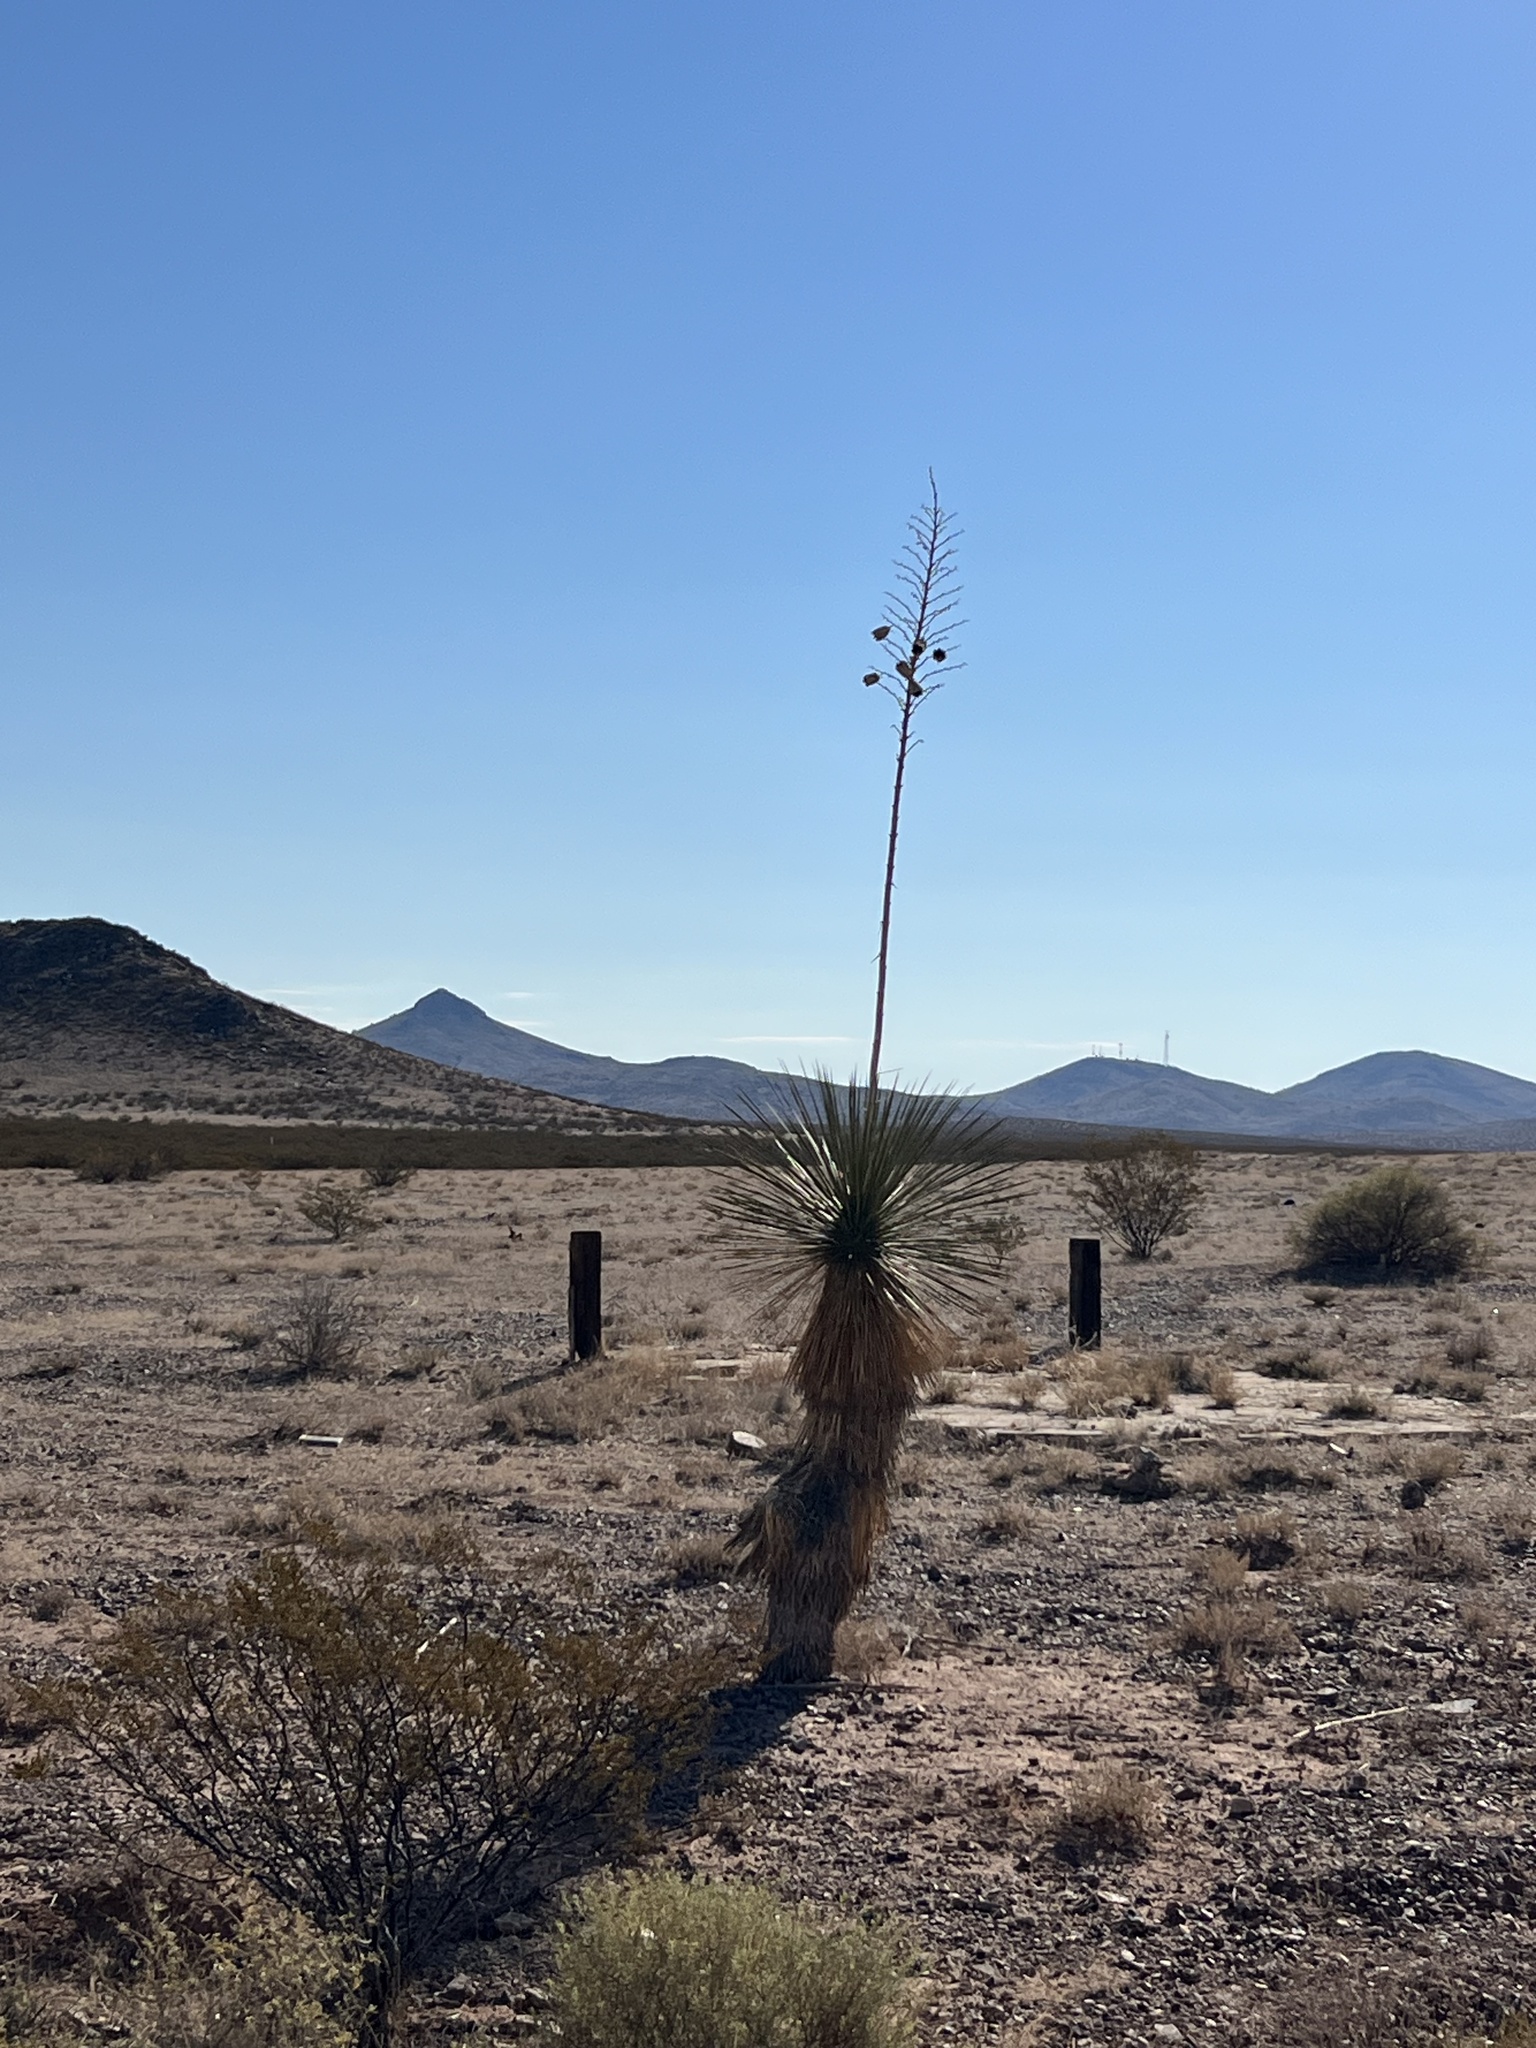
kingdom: Plantae
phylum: Tracheophyta
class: Liliopsida
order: Asparagales
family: Asparagaceae
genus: Yucca
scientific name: Yucca elata
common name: Palmella
